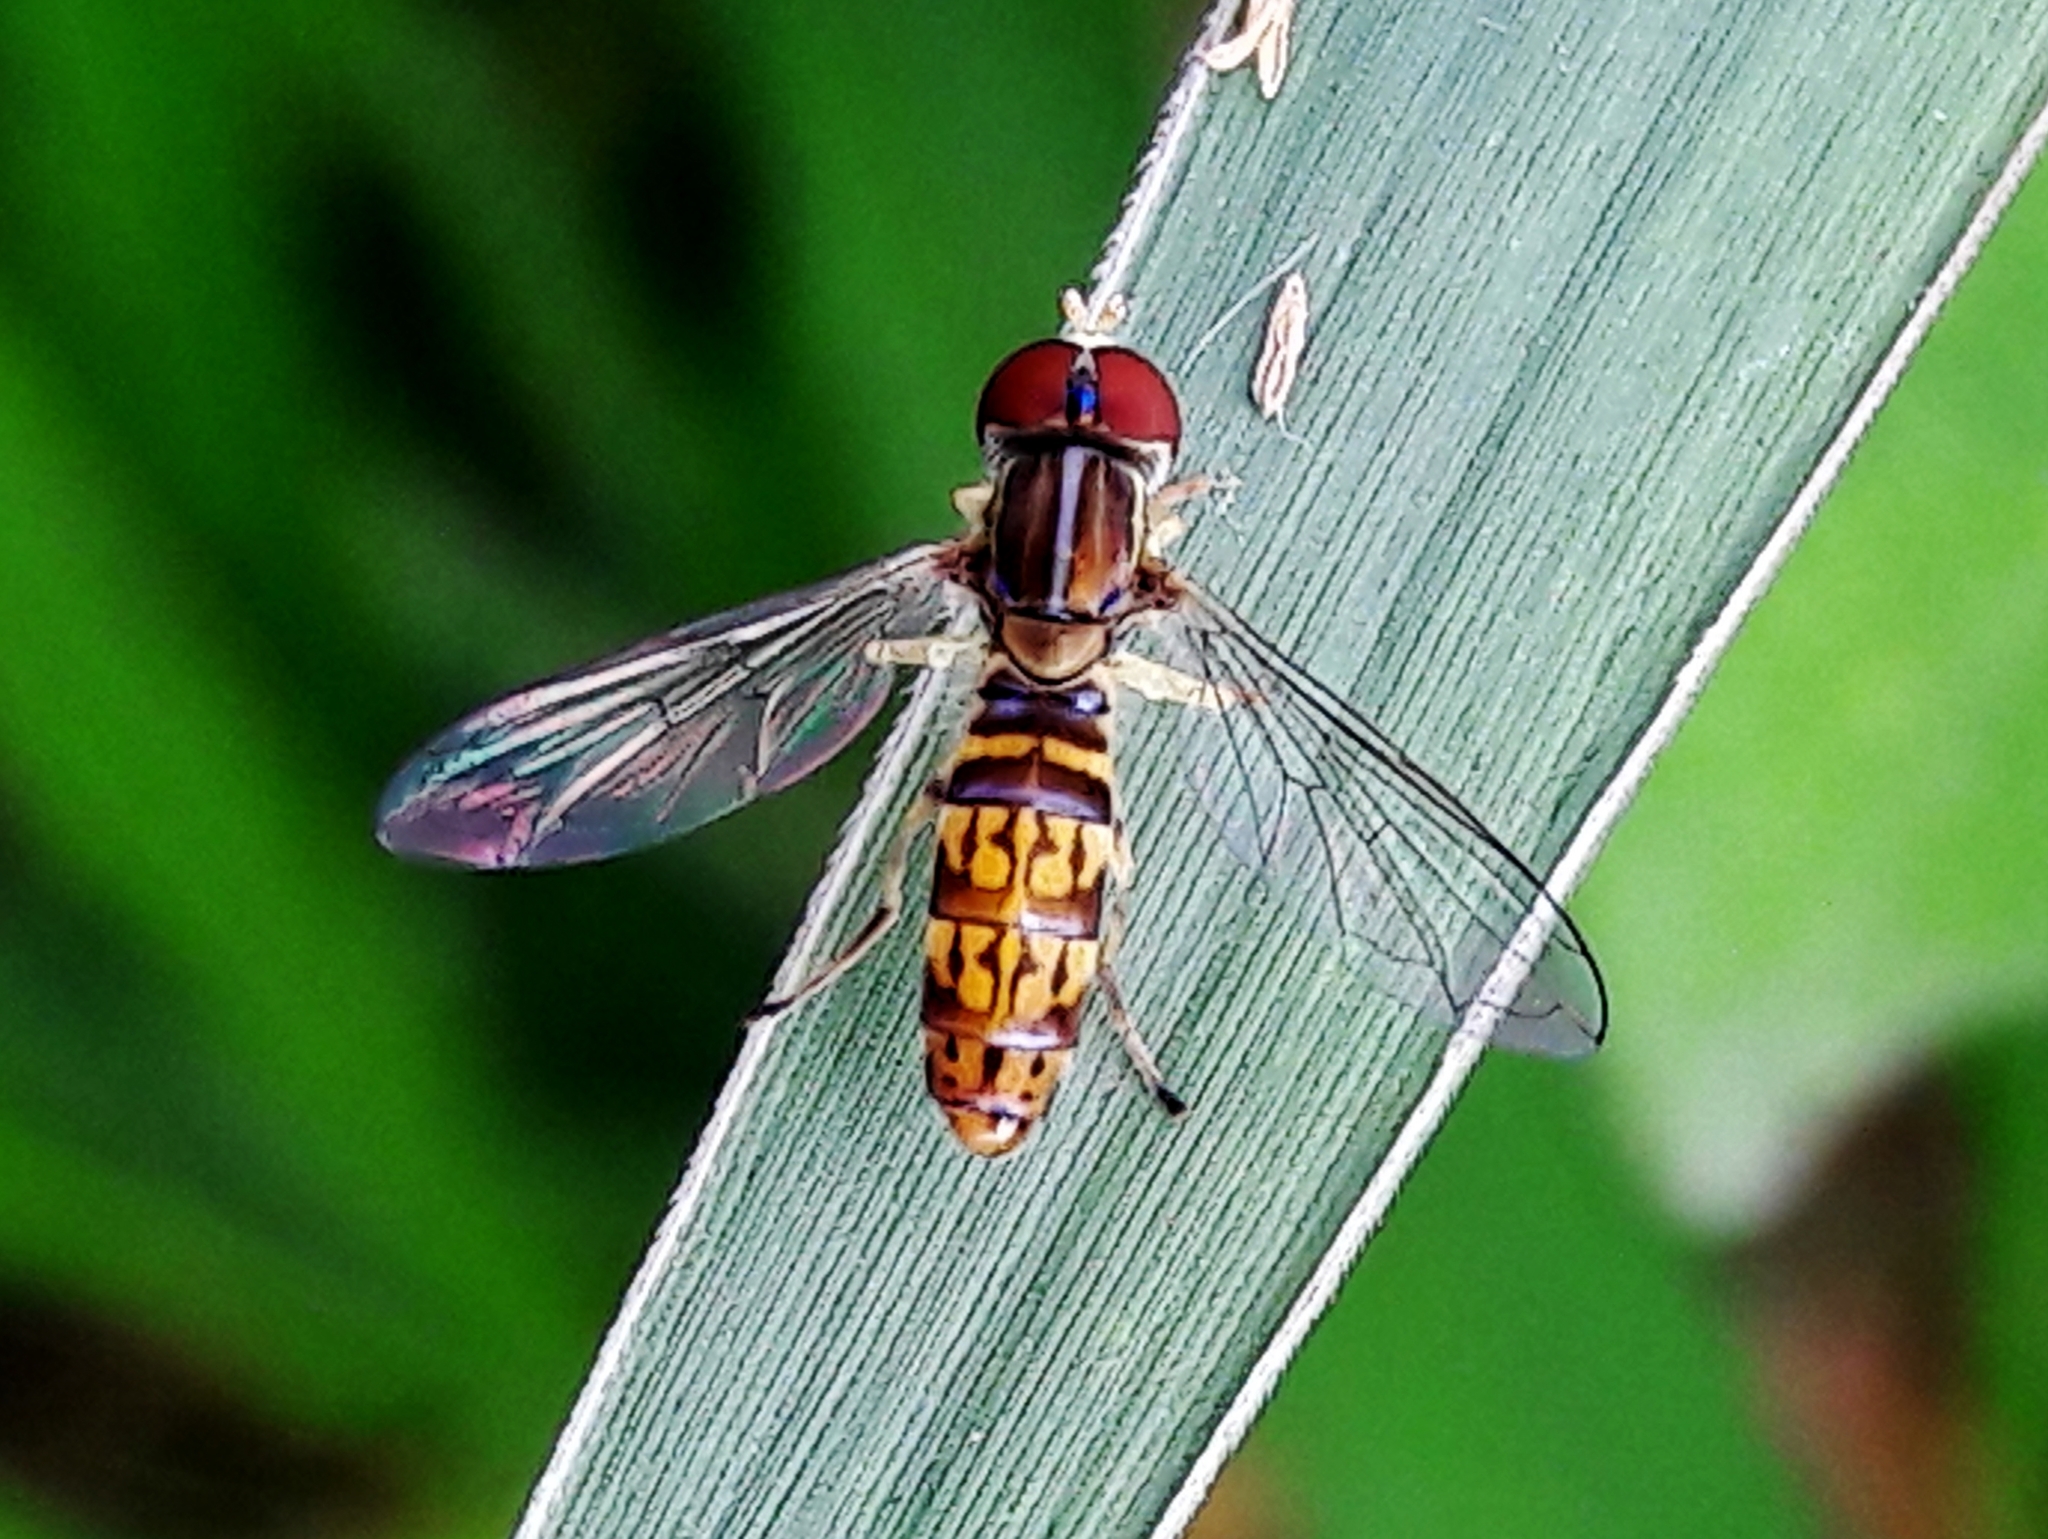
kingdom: Animalia
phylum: Arthropoda
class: Insecta
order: Diptera
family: Syrphidae
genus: Toxomerus
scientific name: Toxomerus
